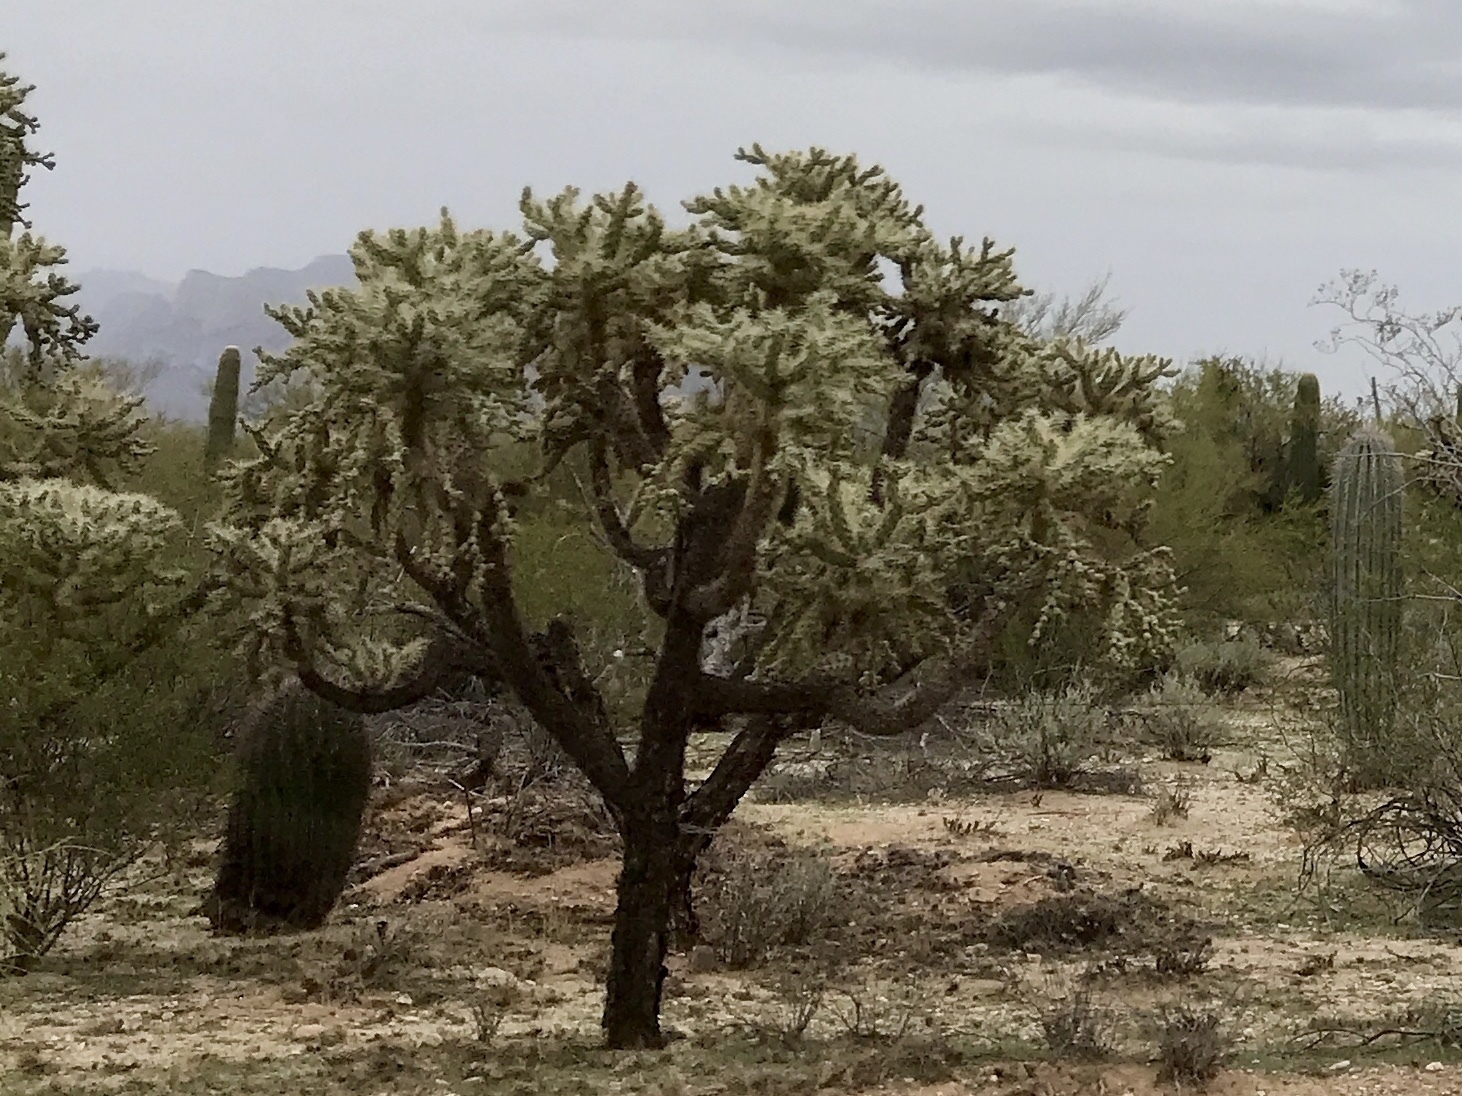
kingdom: Plantae
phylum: Tracheophyta
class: Magnoliopsida
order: Caryophyllales
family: Cactaceae
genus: Cylindropuntia
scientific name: Cylindropuntia fulgida
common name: Jumping cholla
